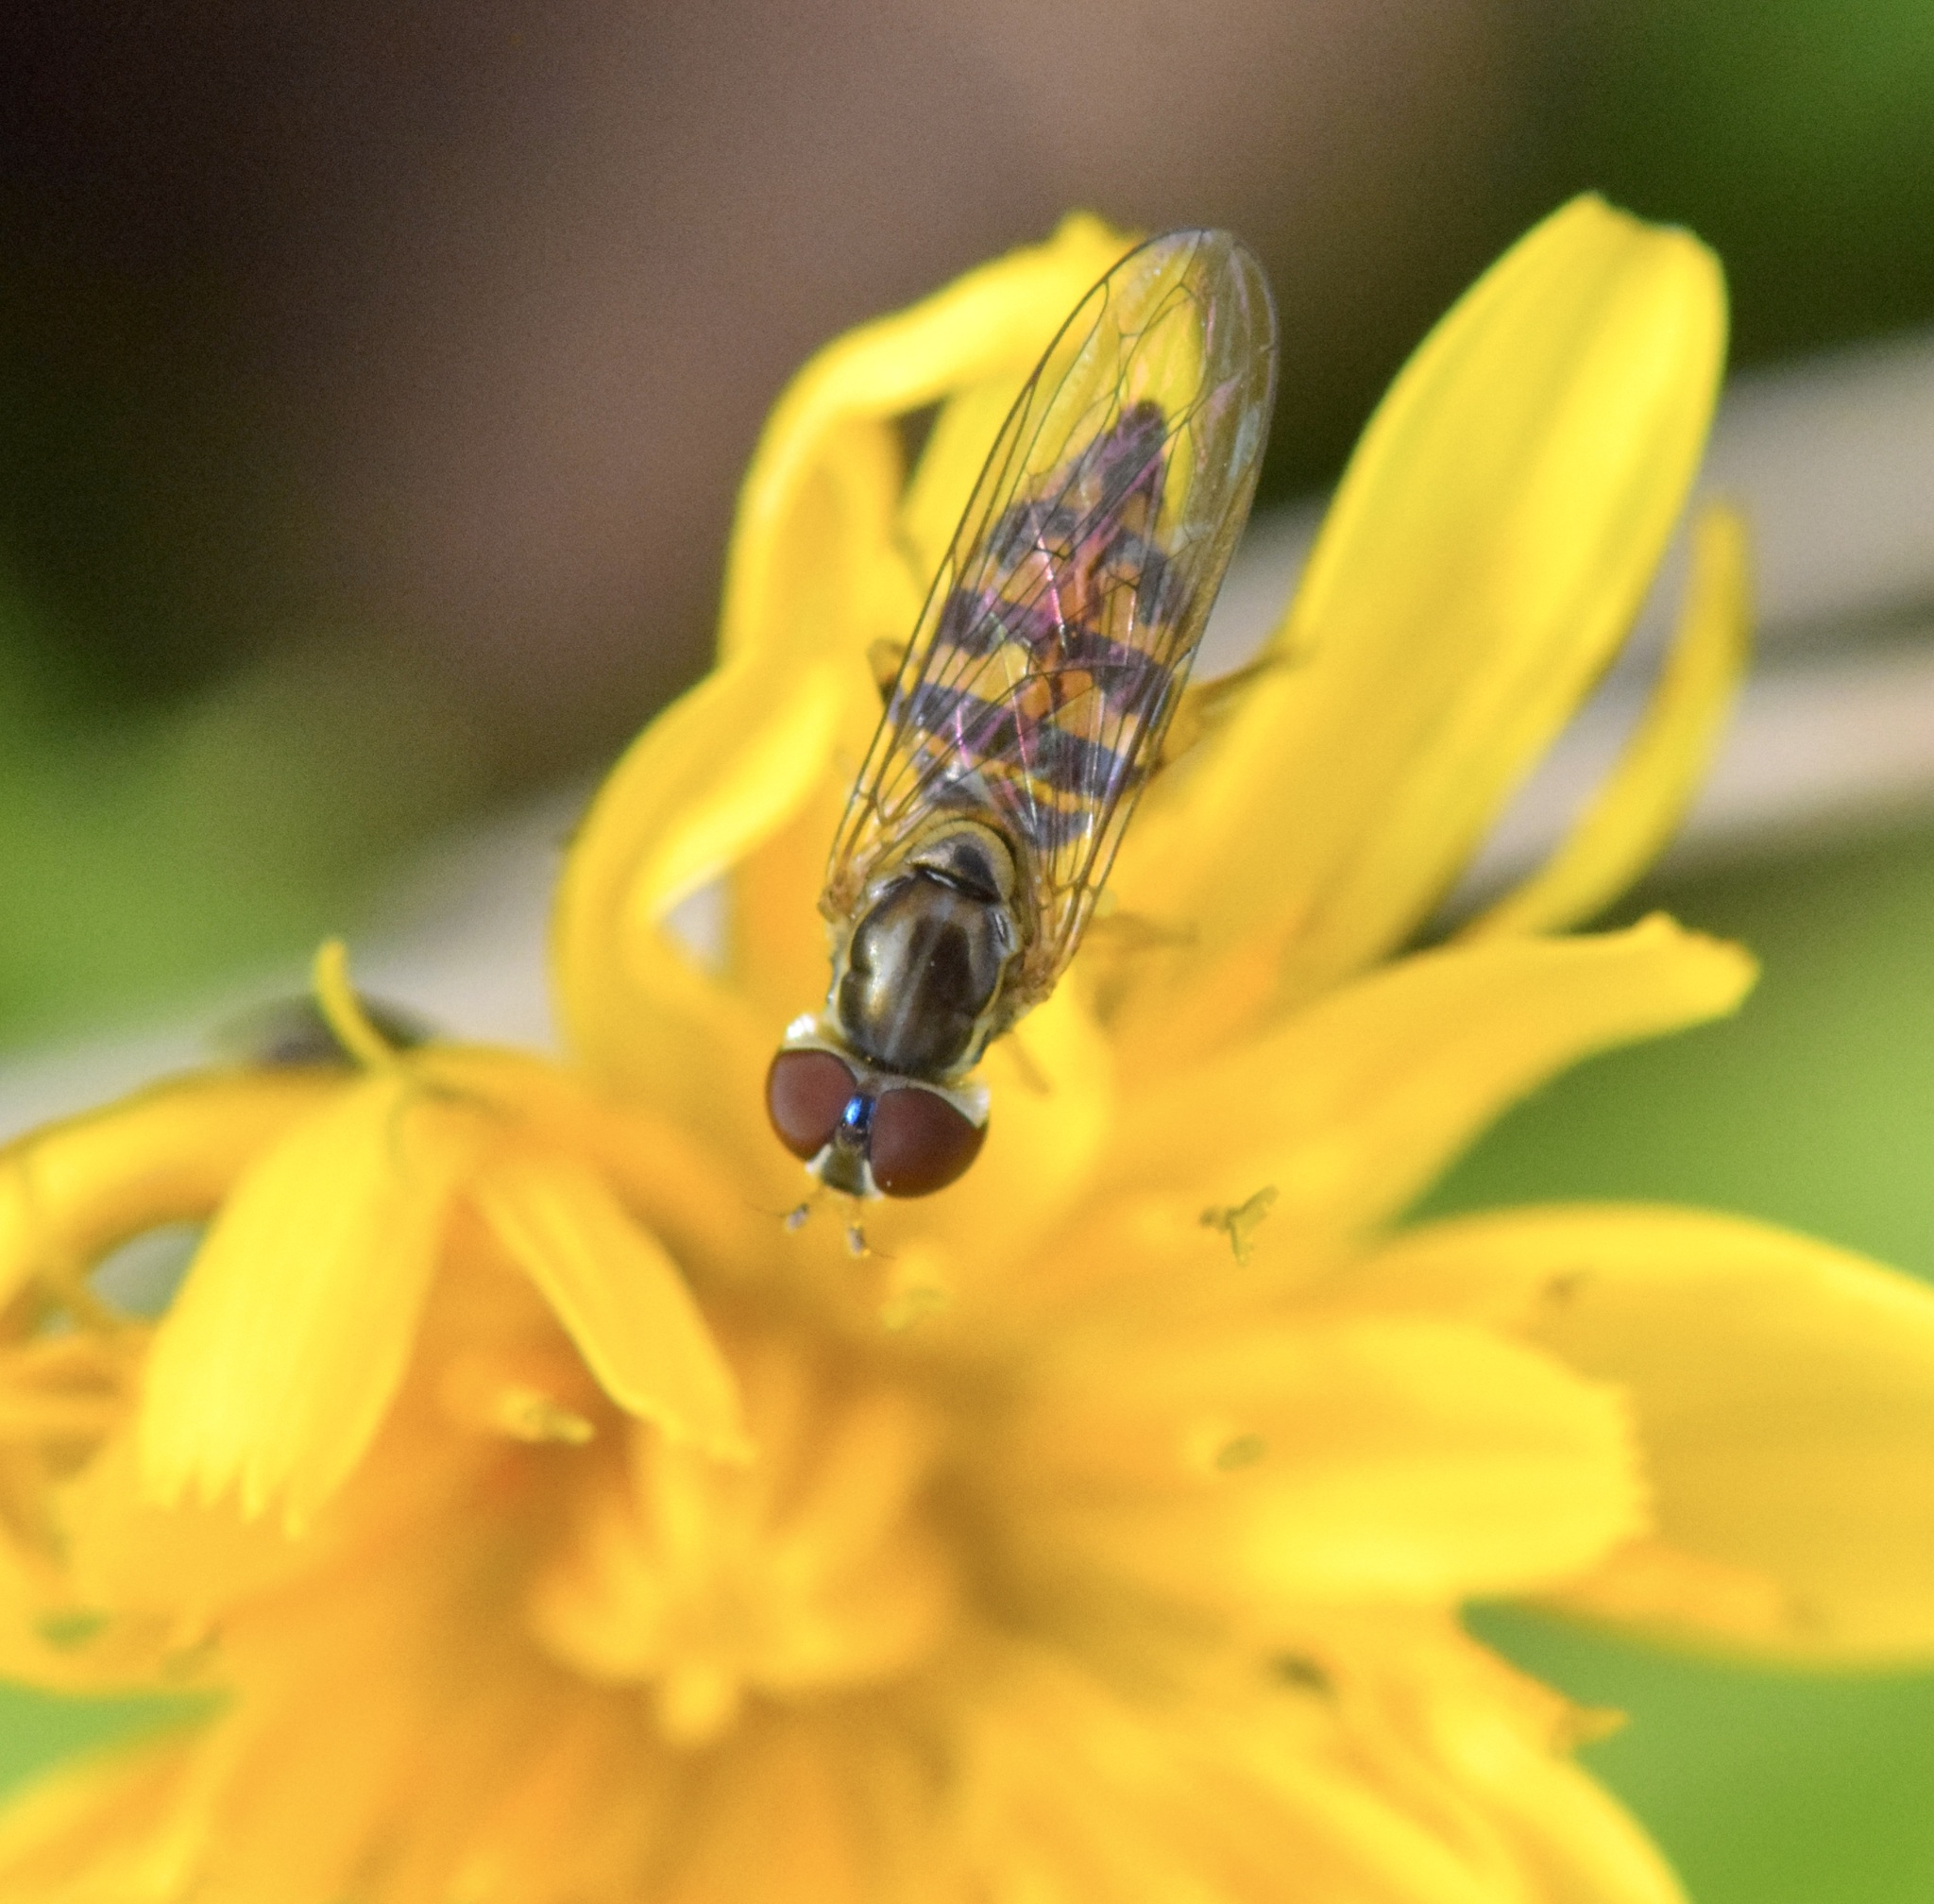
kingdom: Animalia
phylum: Arthropoda
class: Insecta
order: Diptera
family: Syrphidae
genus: Toxomerus
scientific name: Toxomerus geminatus
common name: Eastern calligrapher
